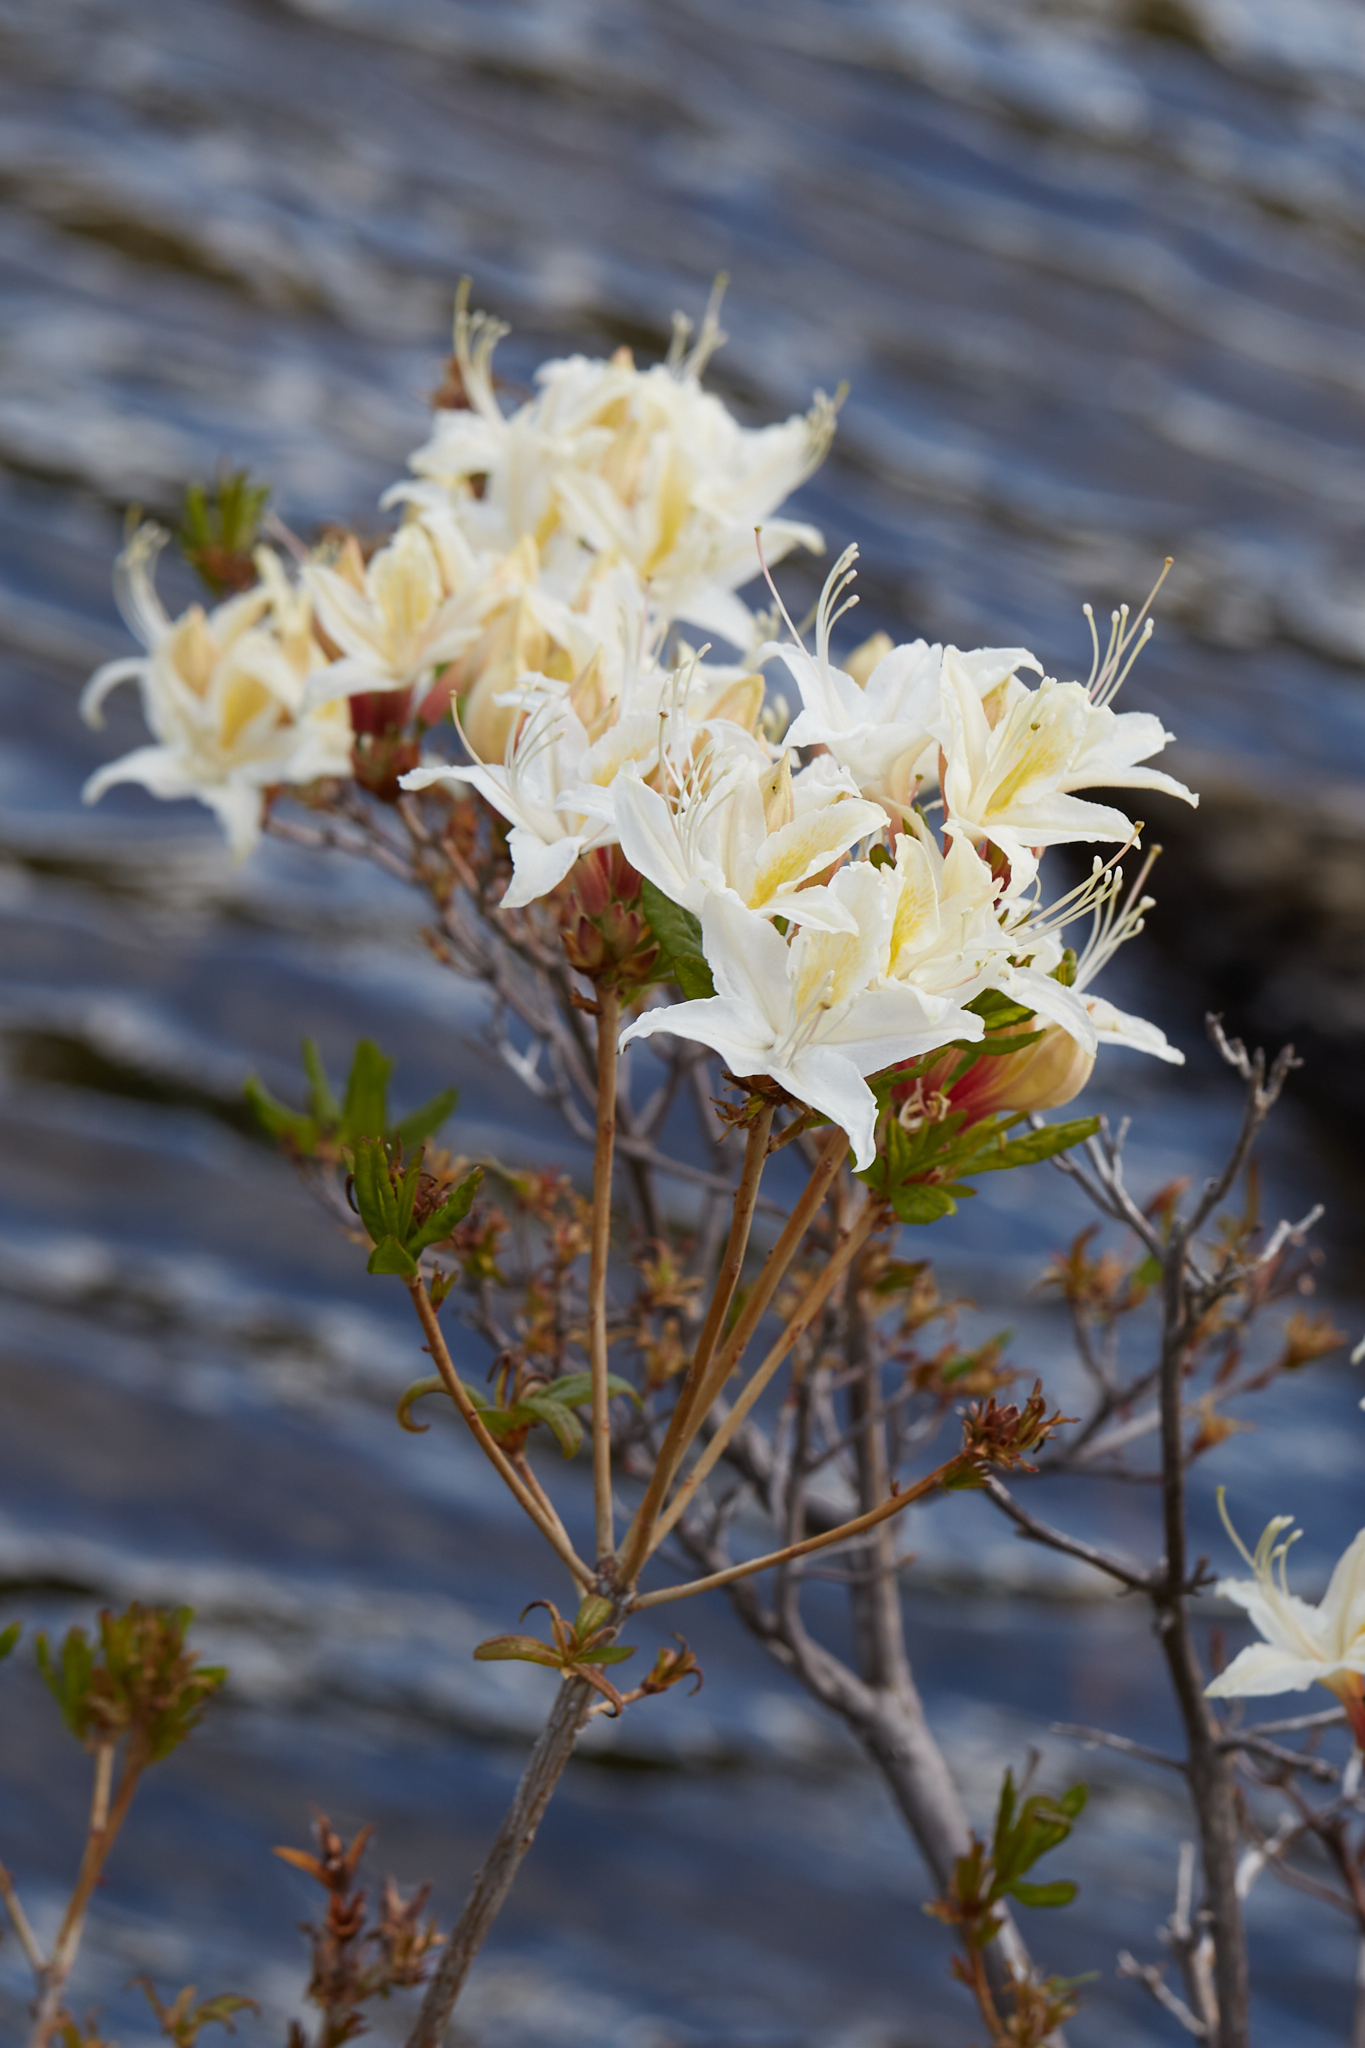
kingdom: Plantae
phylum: Tracheophyta
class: Magnoliopsida
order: Ericales
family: Ericaceae
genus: Rhododendron
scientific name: Rhododendron occidentale
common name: Western azalea
